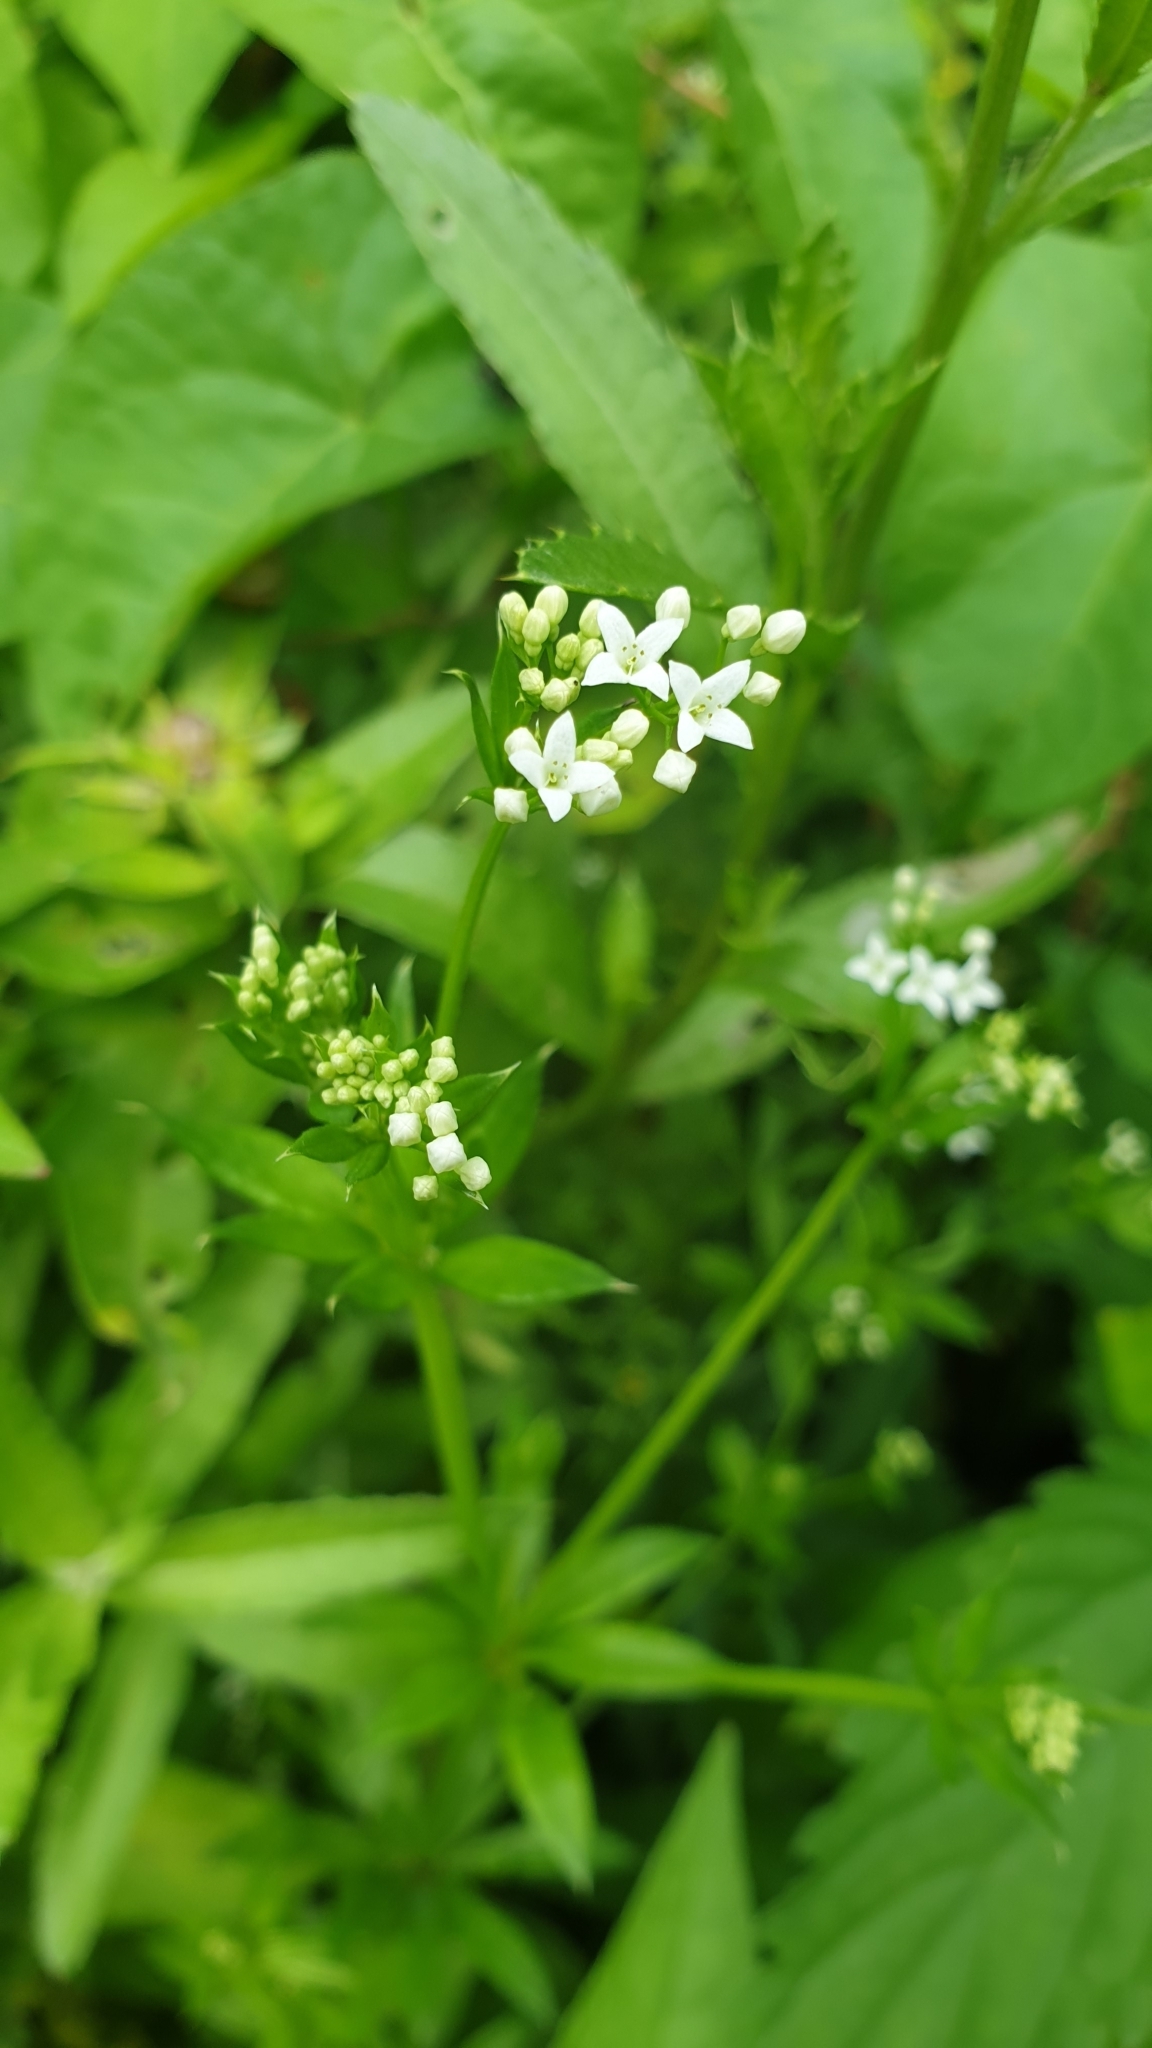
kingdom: Plantae
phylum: Tracheophyta
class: Magnoliopsida
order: Gentianales
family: Rubiaceae
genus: Galium
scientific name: Galium rivale
